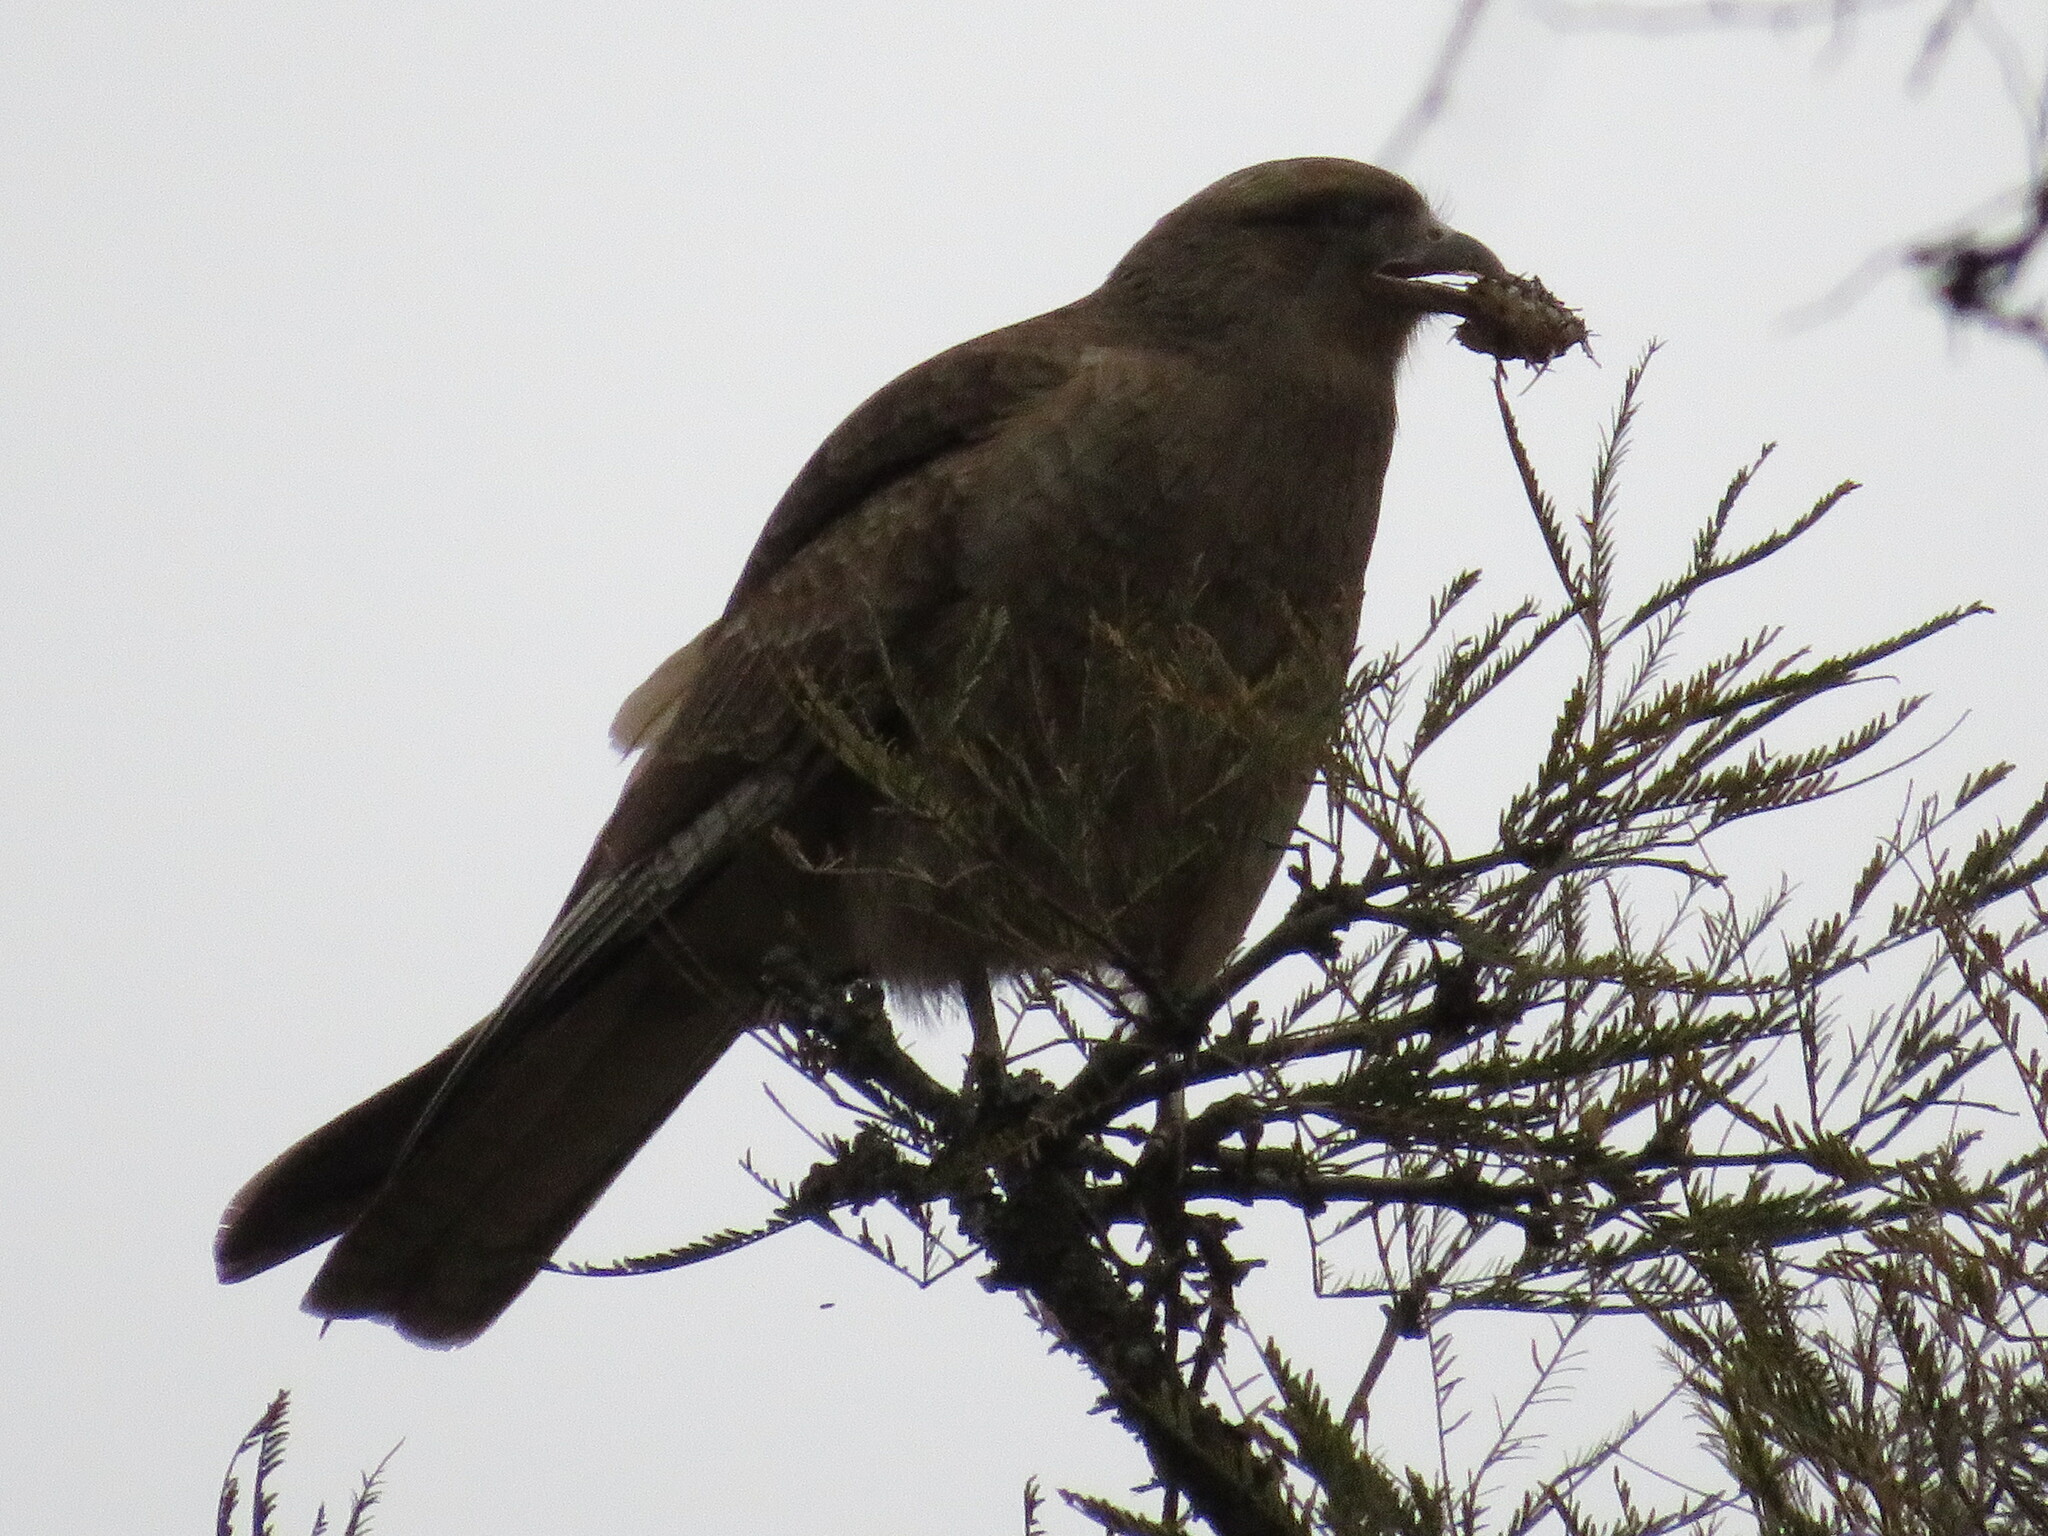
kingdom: Animalia
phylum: Chordata
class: Aves
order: Falconiformes
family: Falconidae
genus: Daptrius
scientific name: Daptrius
